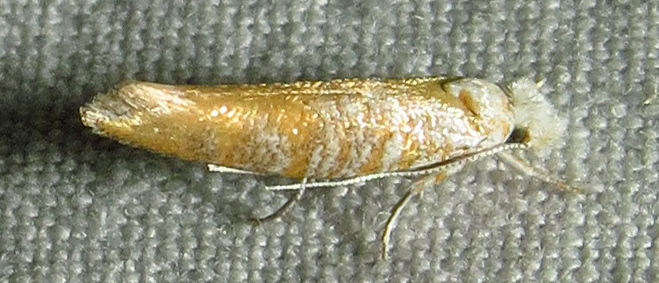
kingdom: Animalia
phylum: Arthropoda
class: Insecta
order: Lepidoptera
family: Yponomeutidae
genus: Zelleria
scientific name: Zelleria retiniella
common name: Brindled zelleria
